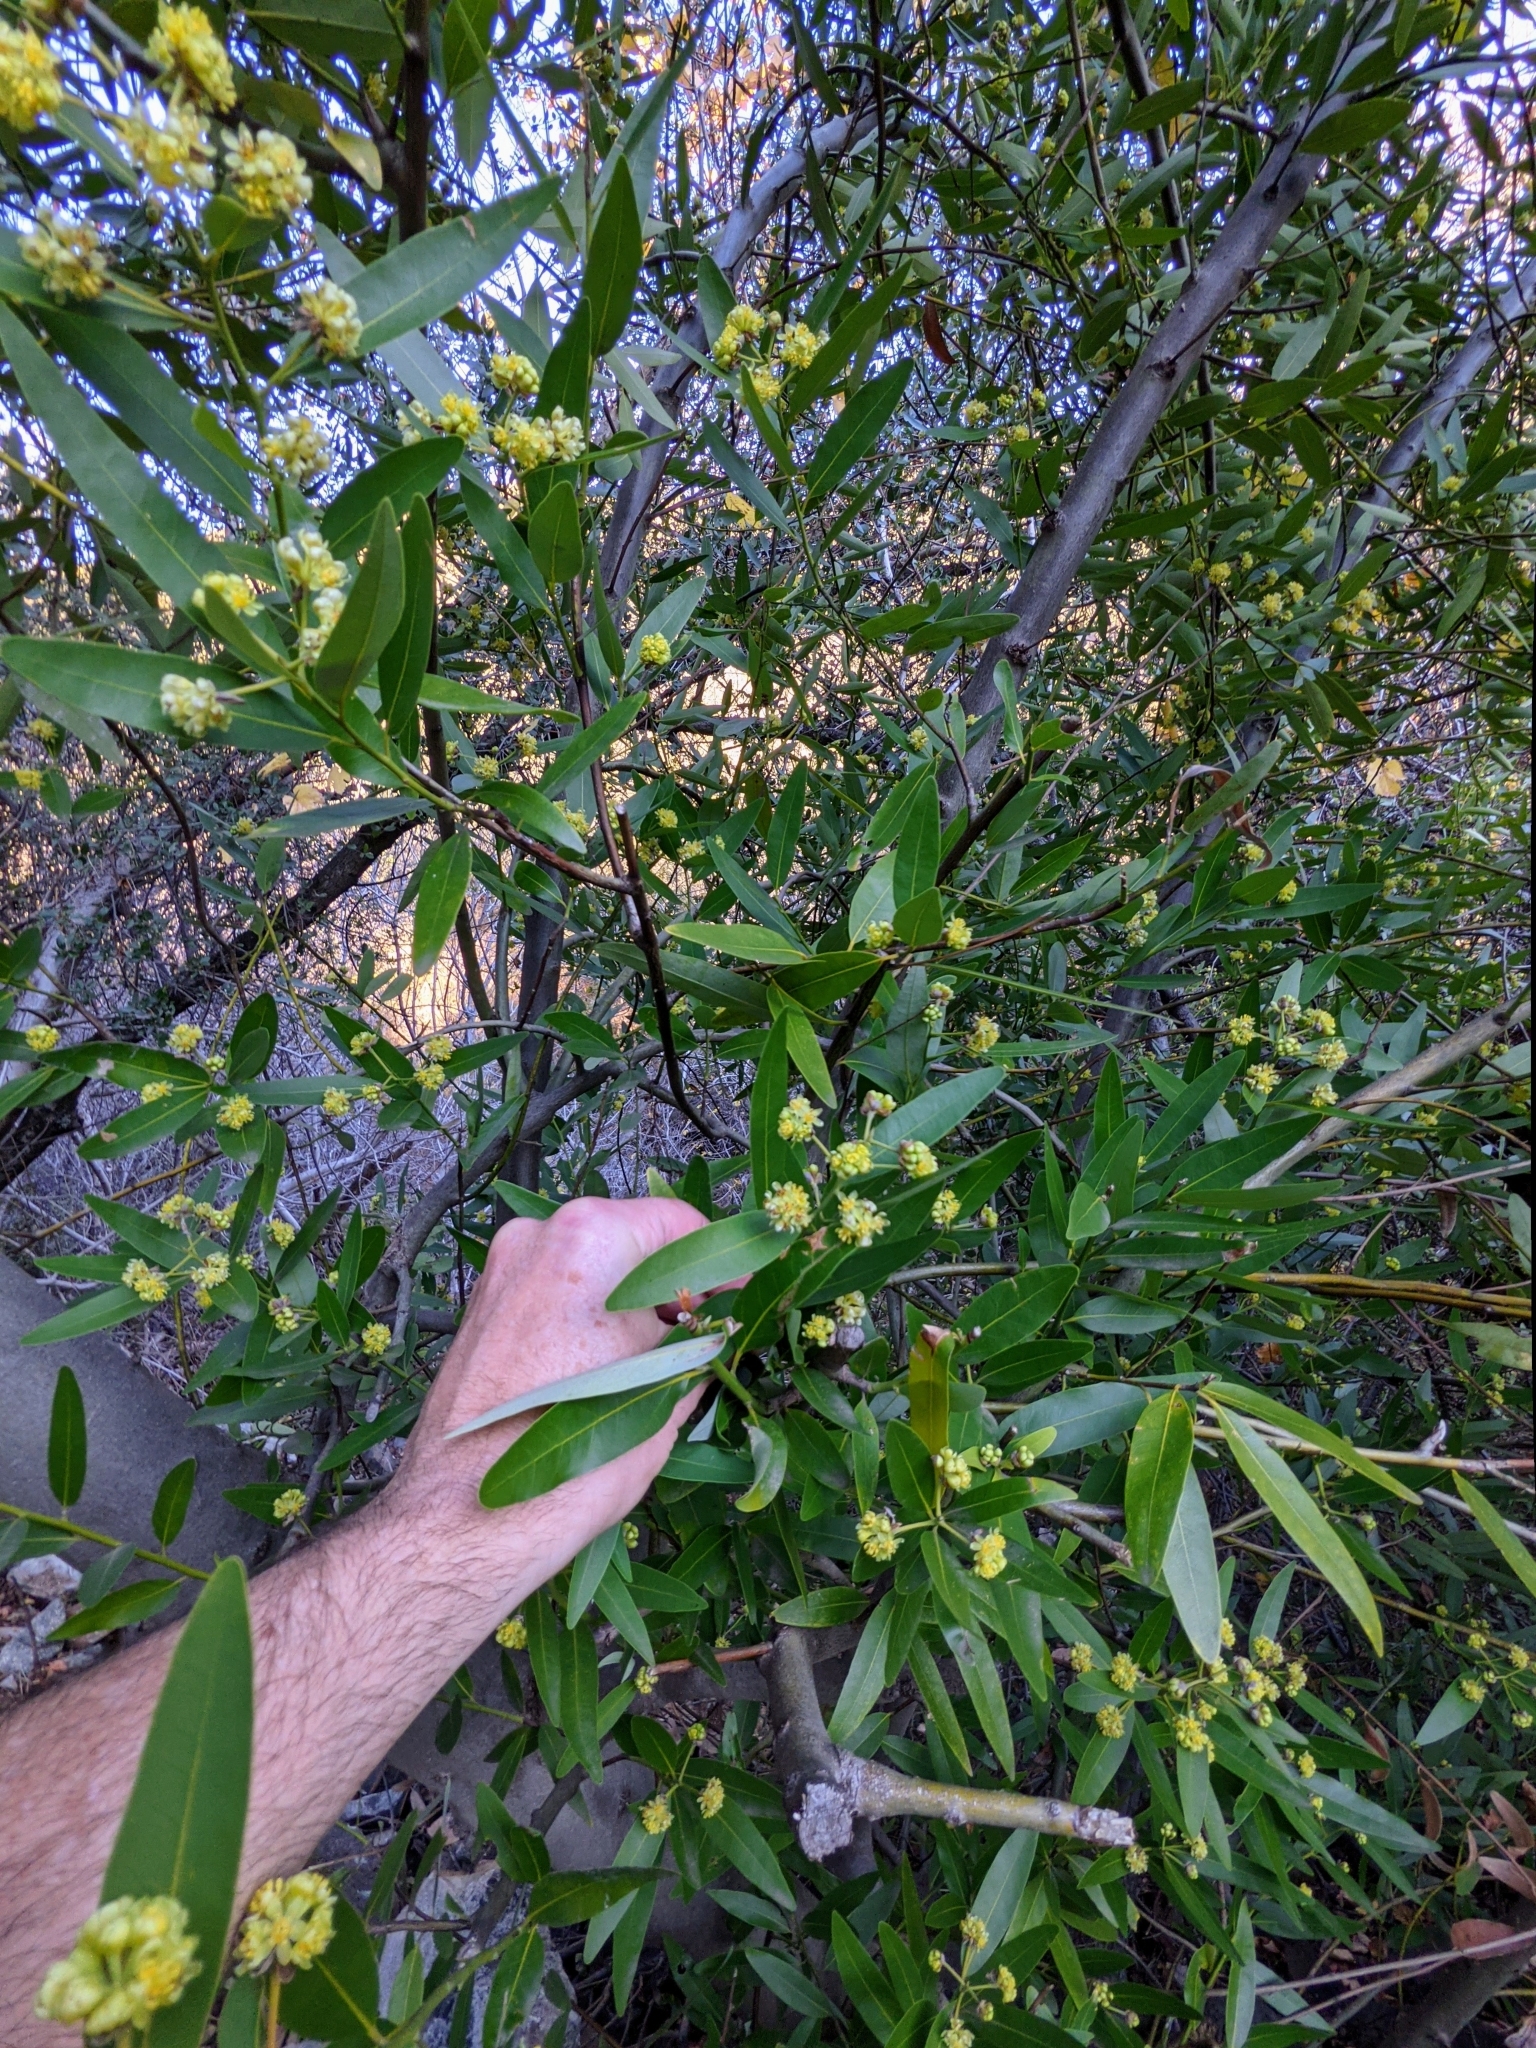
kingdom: Plantae
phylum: Tracheophyta
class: Magnoliopsida
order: Laurales
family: Lauraceae
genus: Umbellularia
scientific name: Umbellularia californica
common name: California bay
